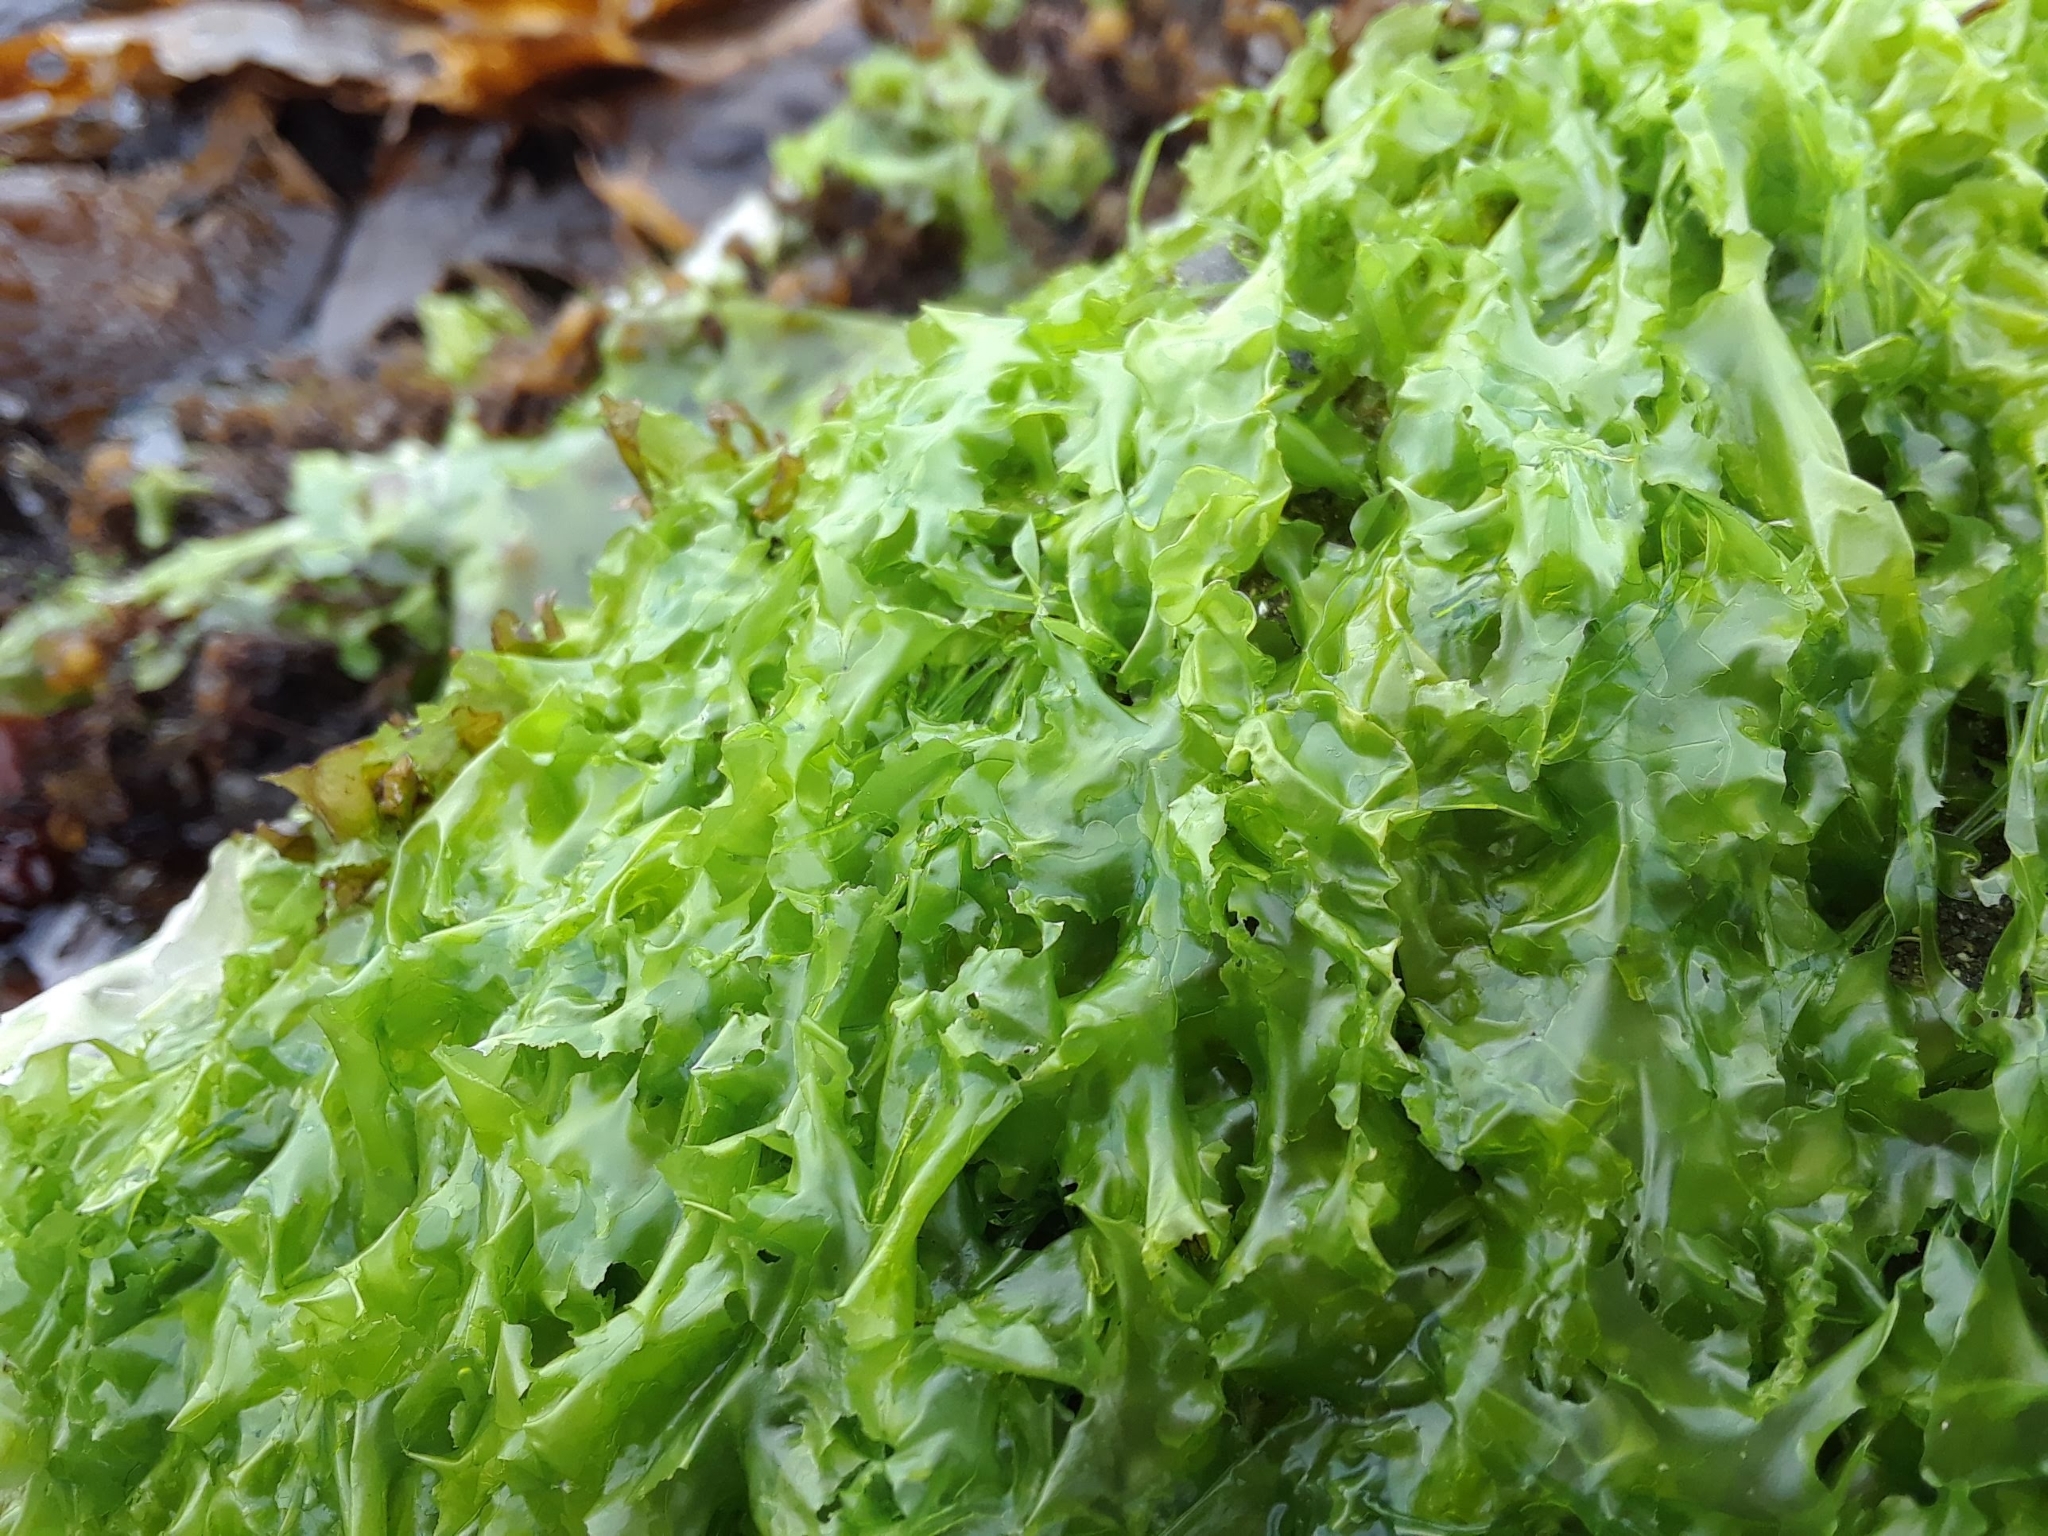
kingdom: Plantae
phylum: Chlorophyta
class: Ulvophyceae
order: Ulvales
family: Ulvaceae
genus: Ulva
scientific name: Ulva lactuca
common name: Sea lettuce
